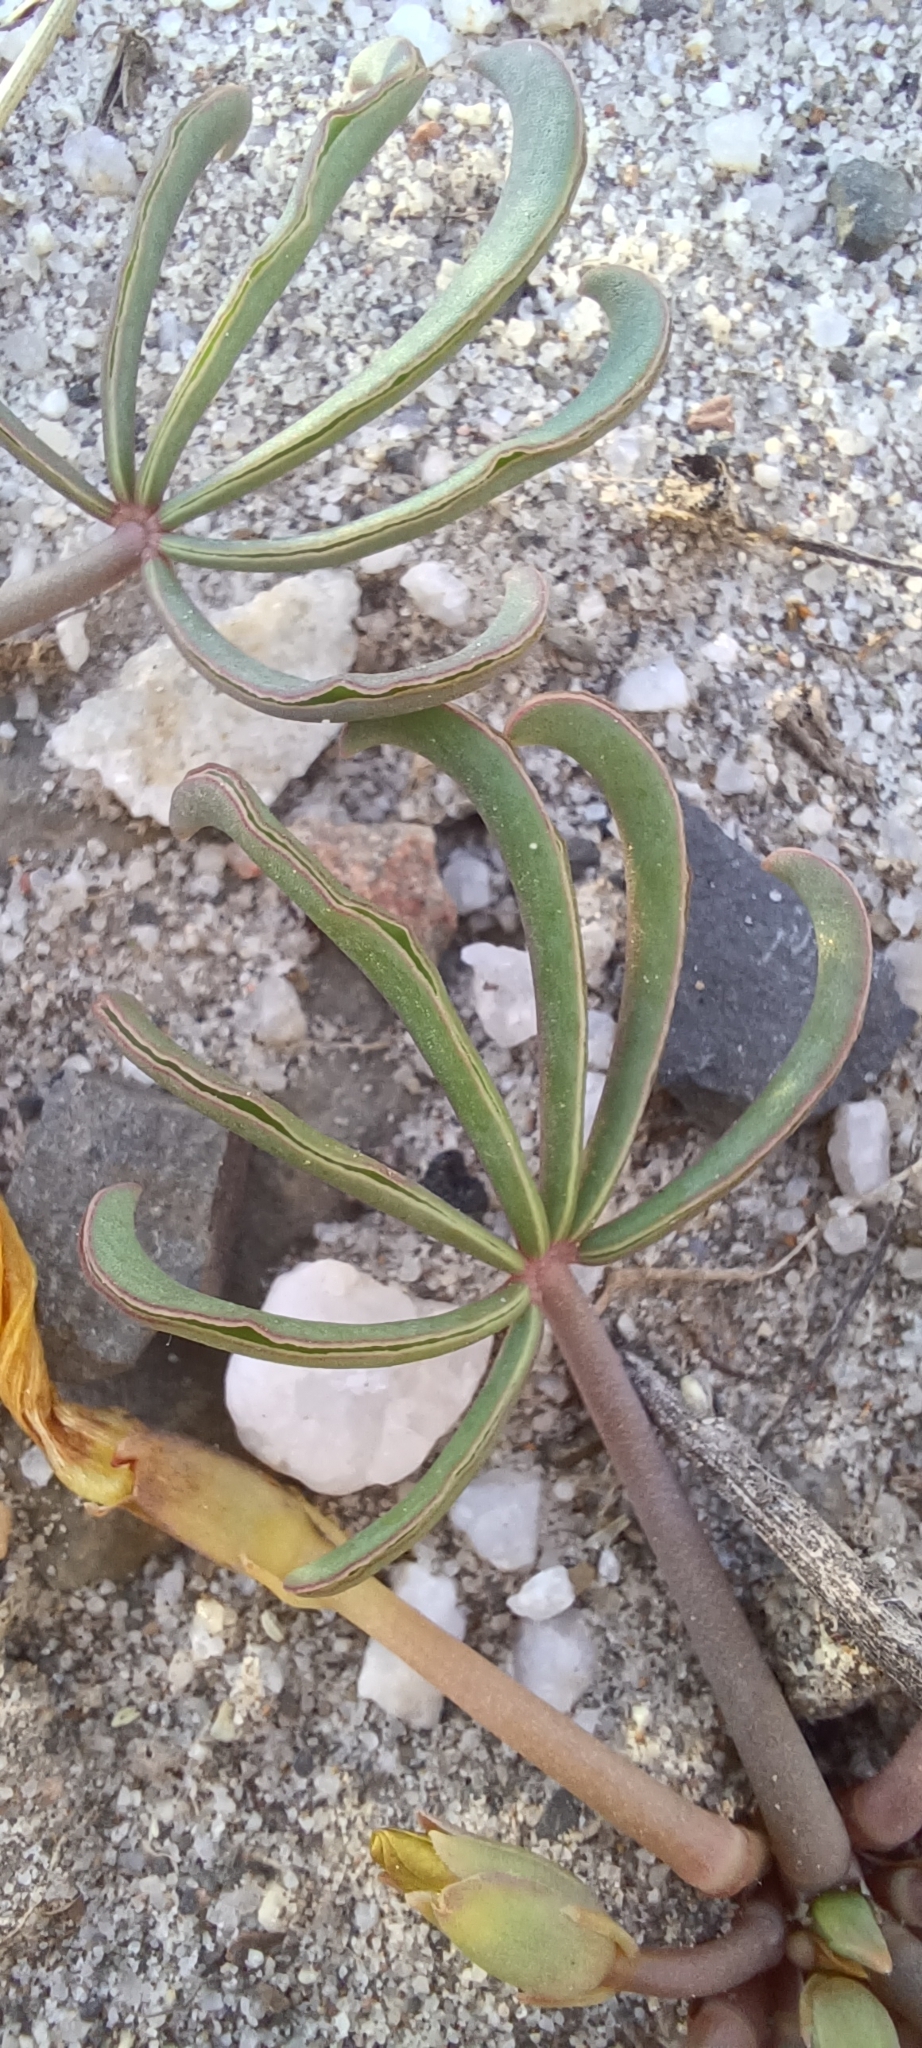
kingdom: Plantae
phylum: Tracheophyta
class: Magnoliopsida
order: Oxalidales
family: Oxalidaceae
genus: Oxalis
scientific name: Oxalis flava
